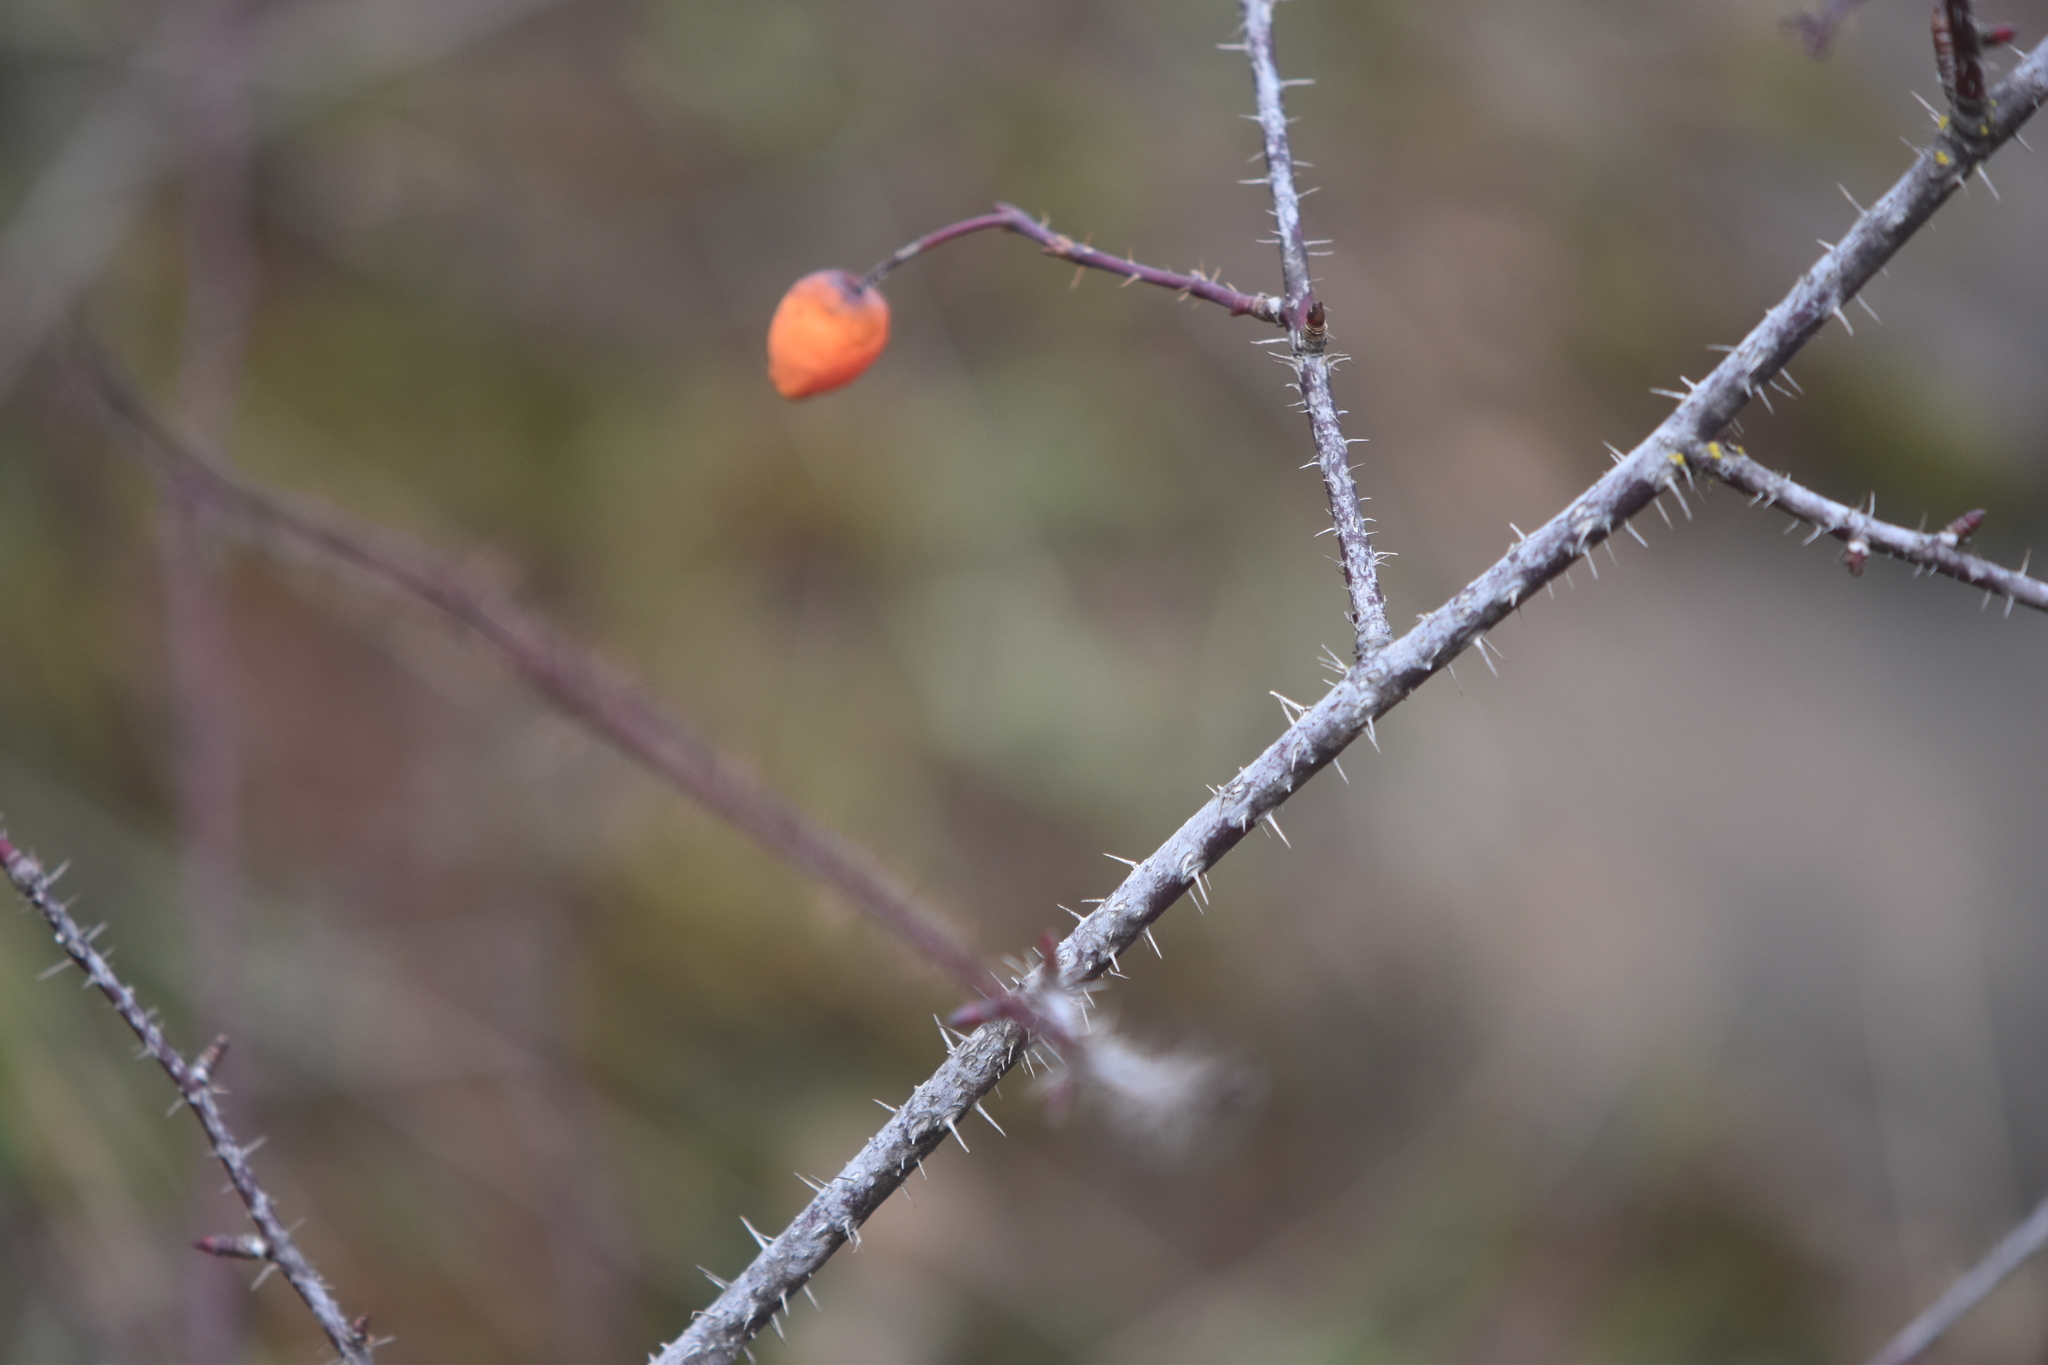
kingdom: Plantae
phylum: Tracheophyta
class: Magnoliopsida
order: Rosales
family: Rosaceae
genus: Rosa
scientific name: Rosa gymnocarpa
